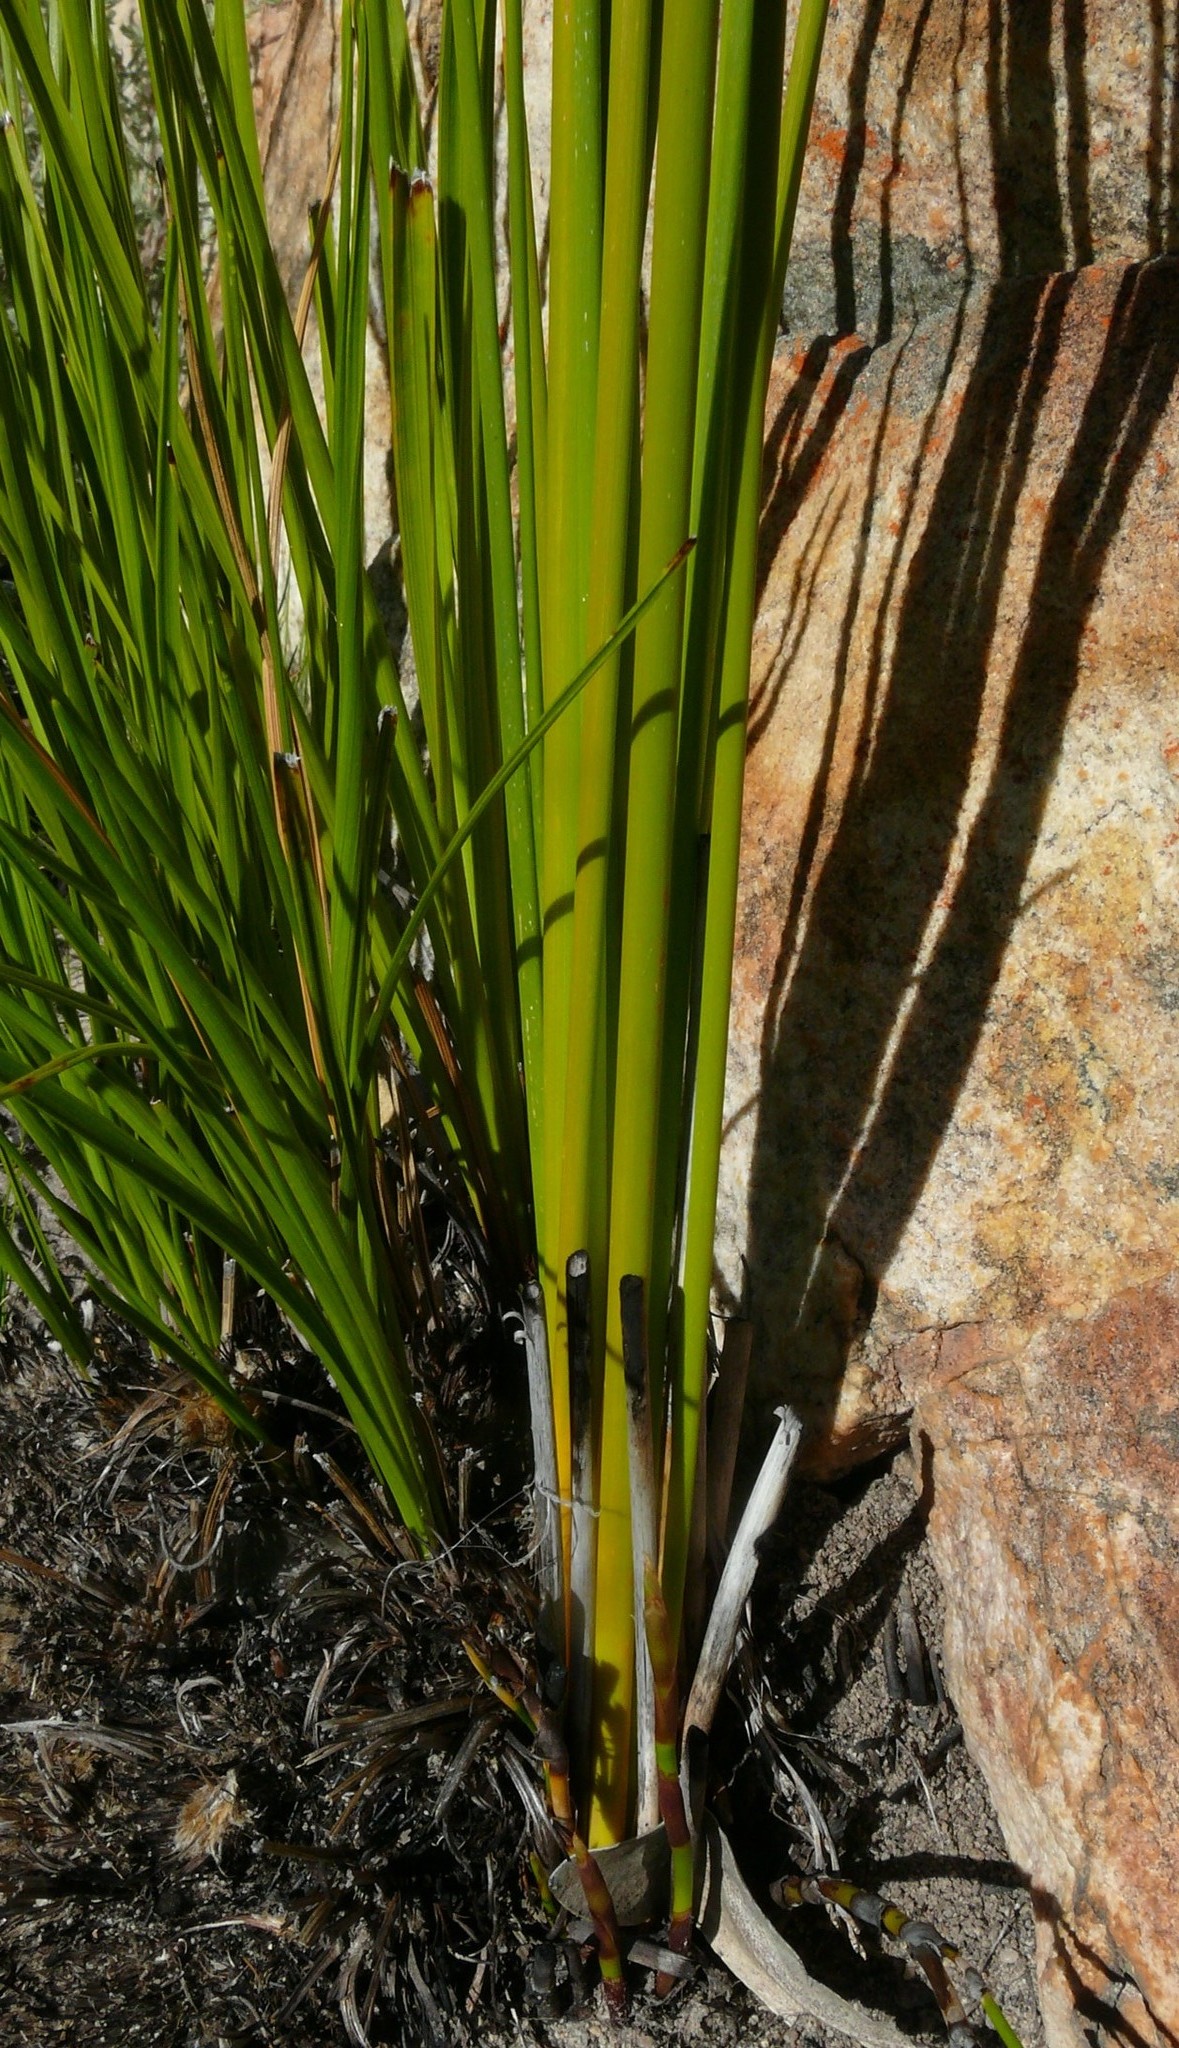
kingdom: Plantae
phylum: Tracheophyta
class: Liliopsida
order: Asparagales
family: Iridaceae
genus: Bobartia
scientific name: Bobartia rufa
